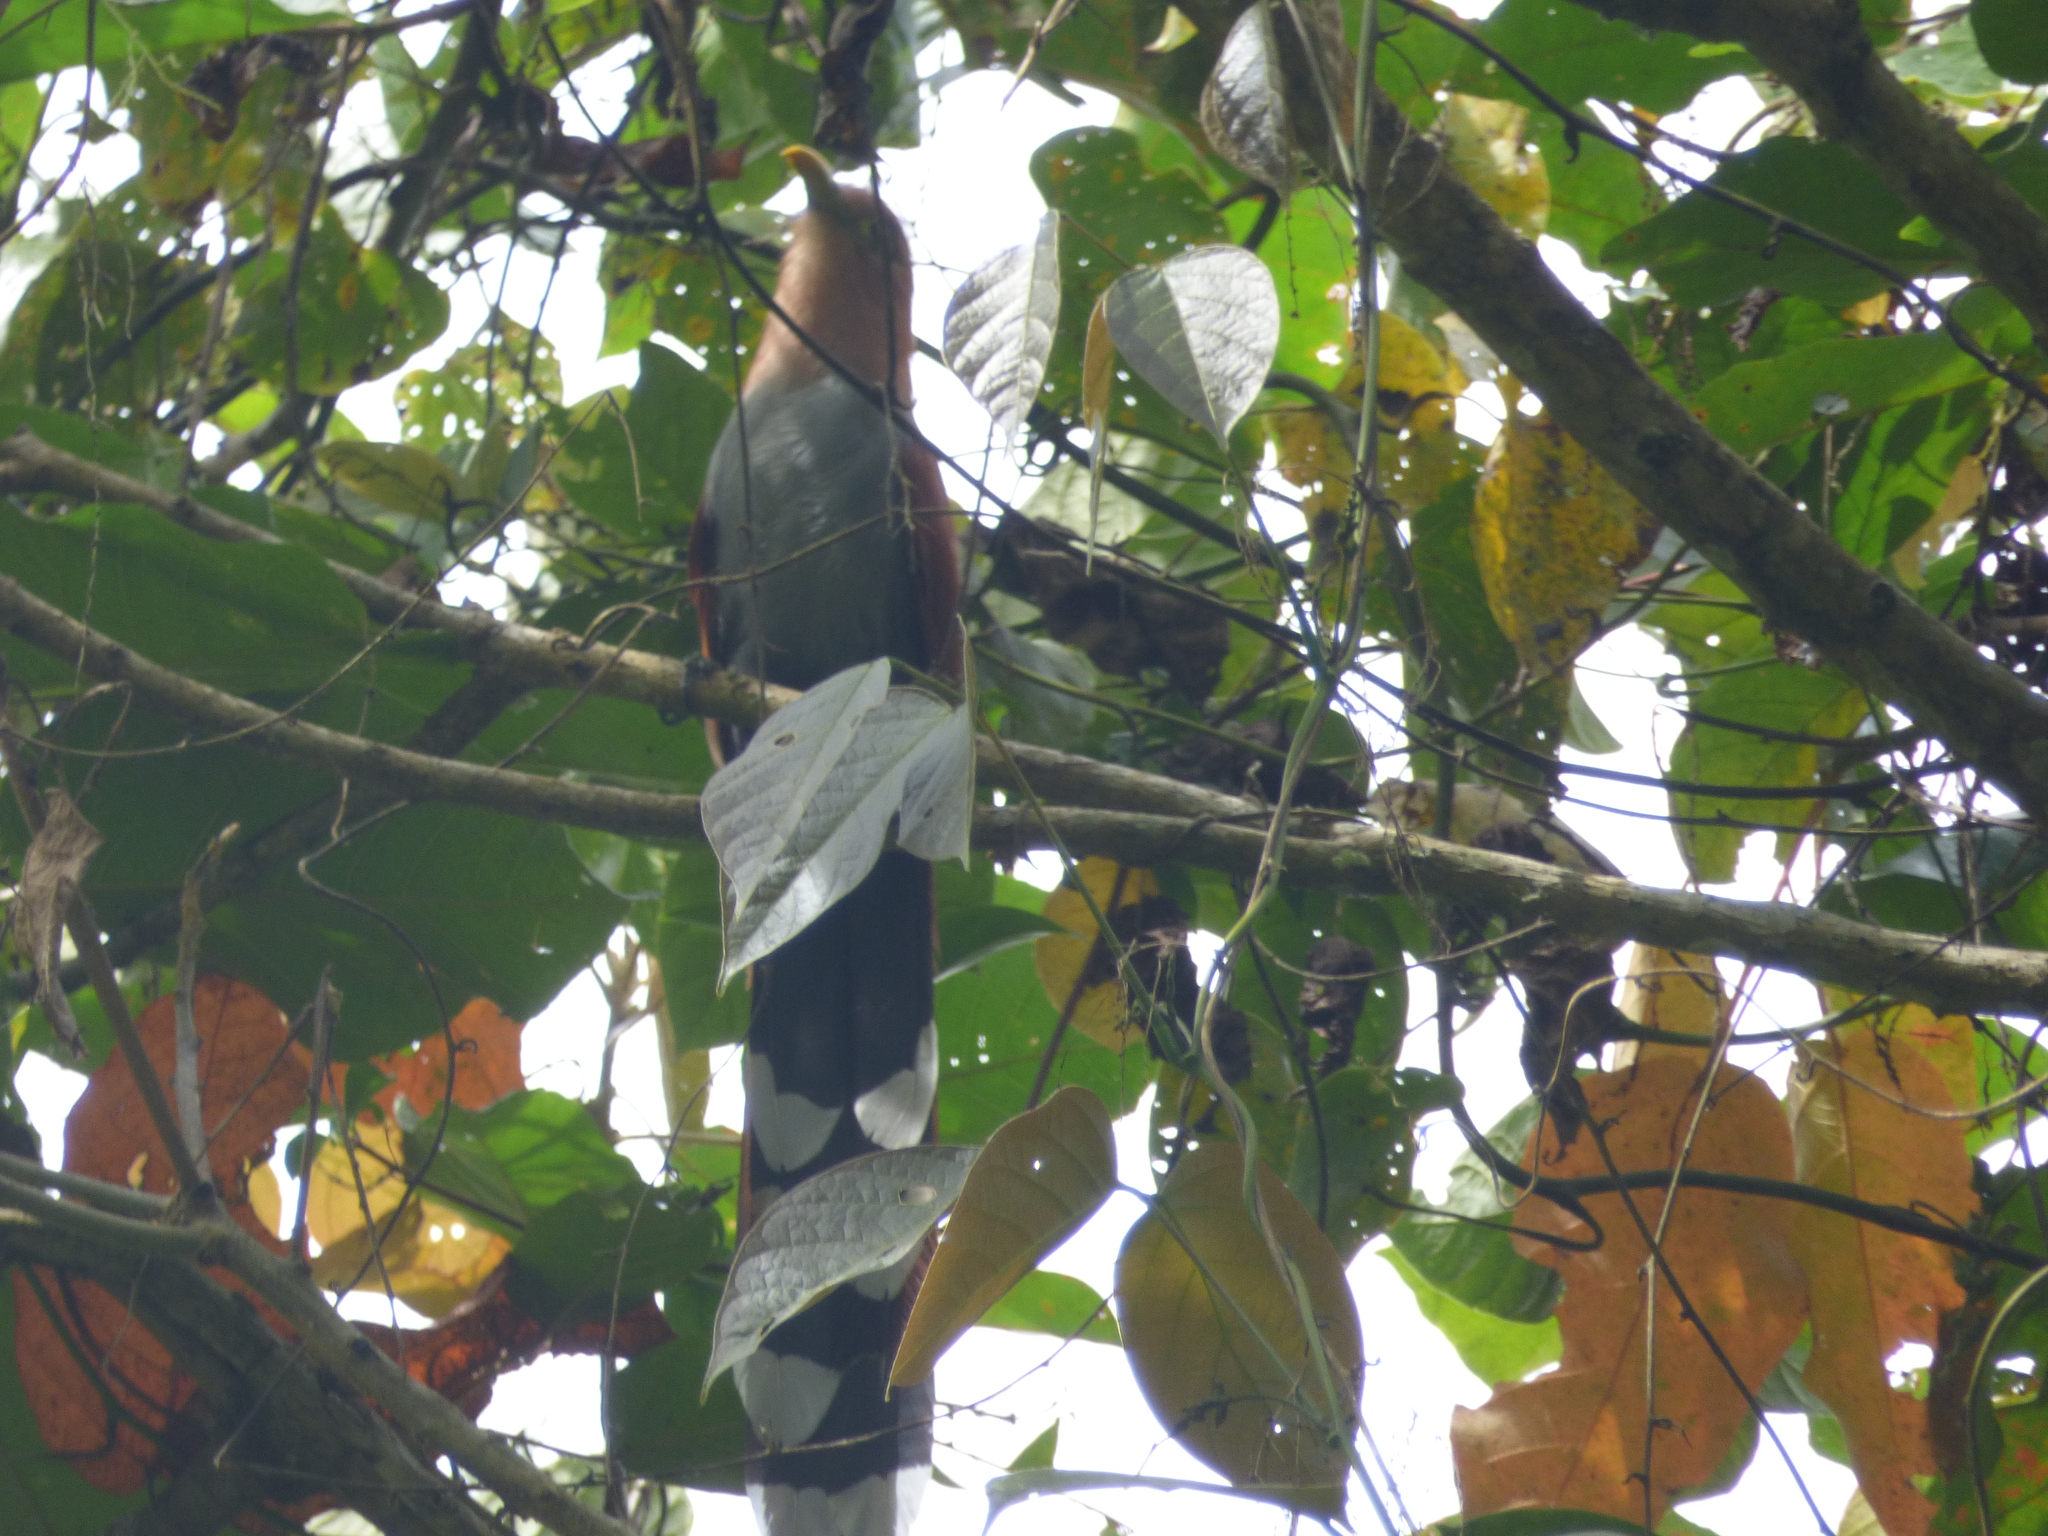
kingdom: Animalia
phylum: Chordata
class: Aves
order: Cuculiformes
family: Cuculidae
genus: Piaya
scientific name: Piaya cayana
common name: Squirrel cuckoo
